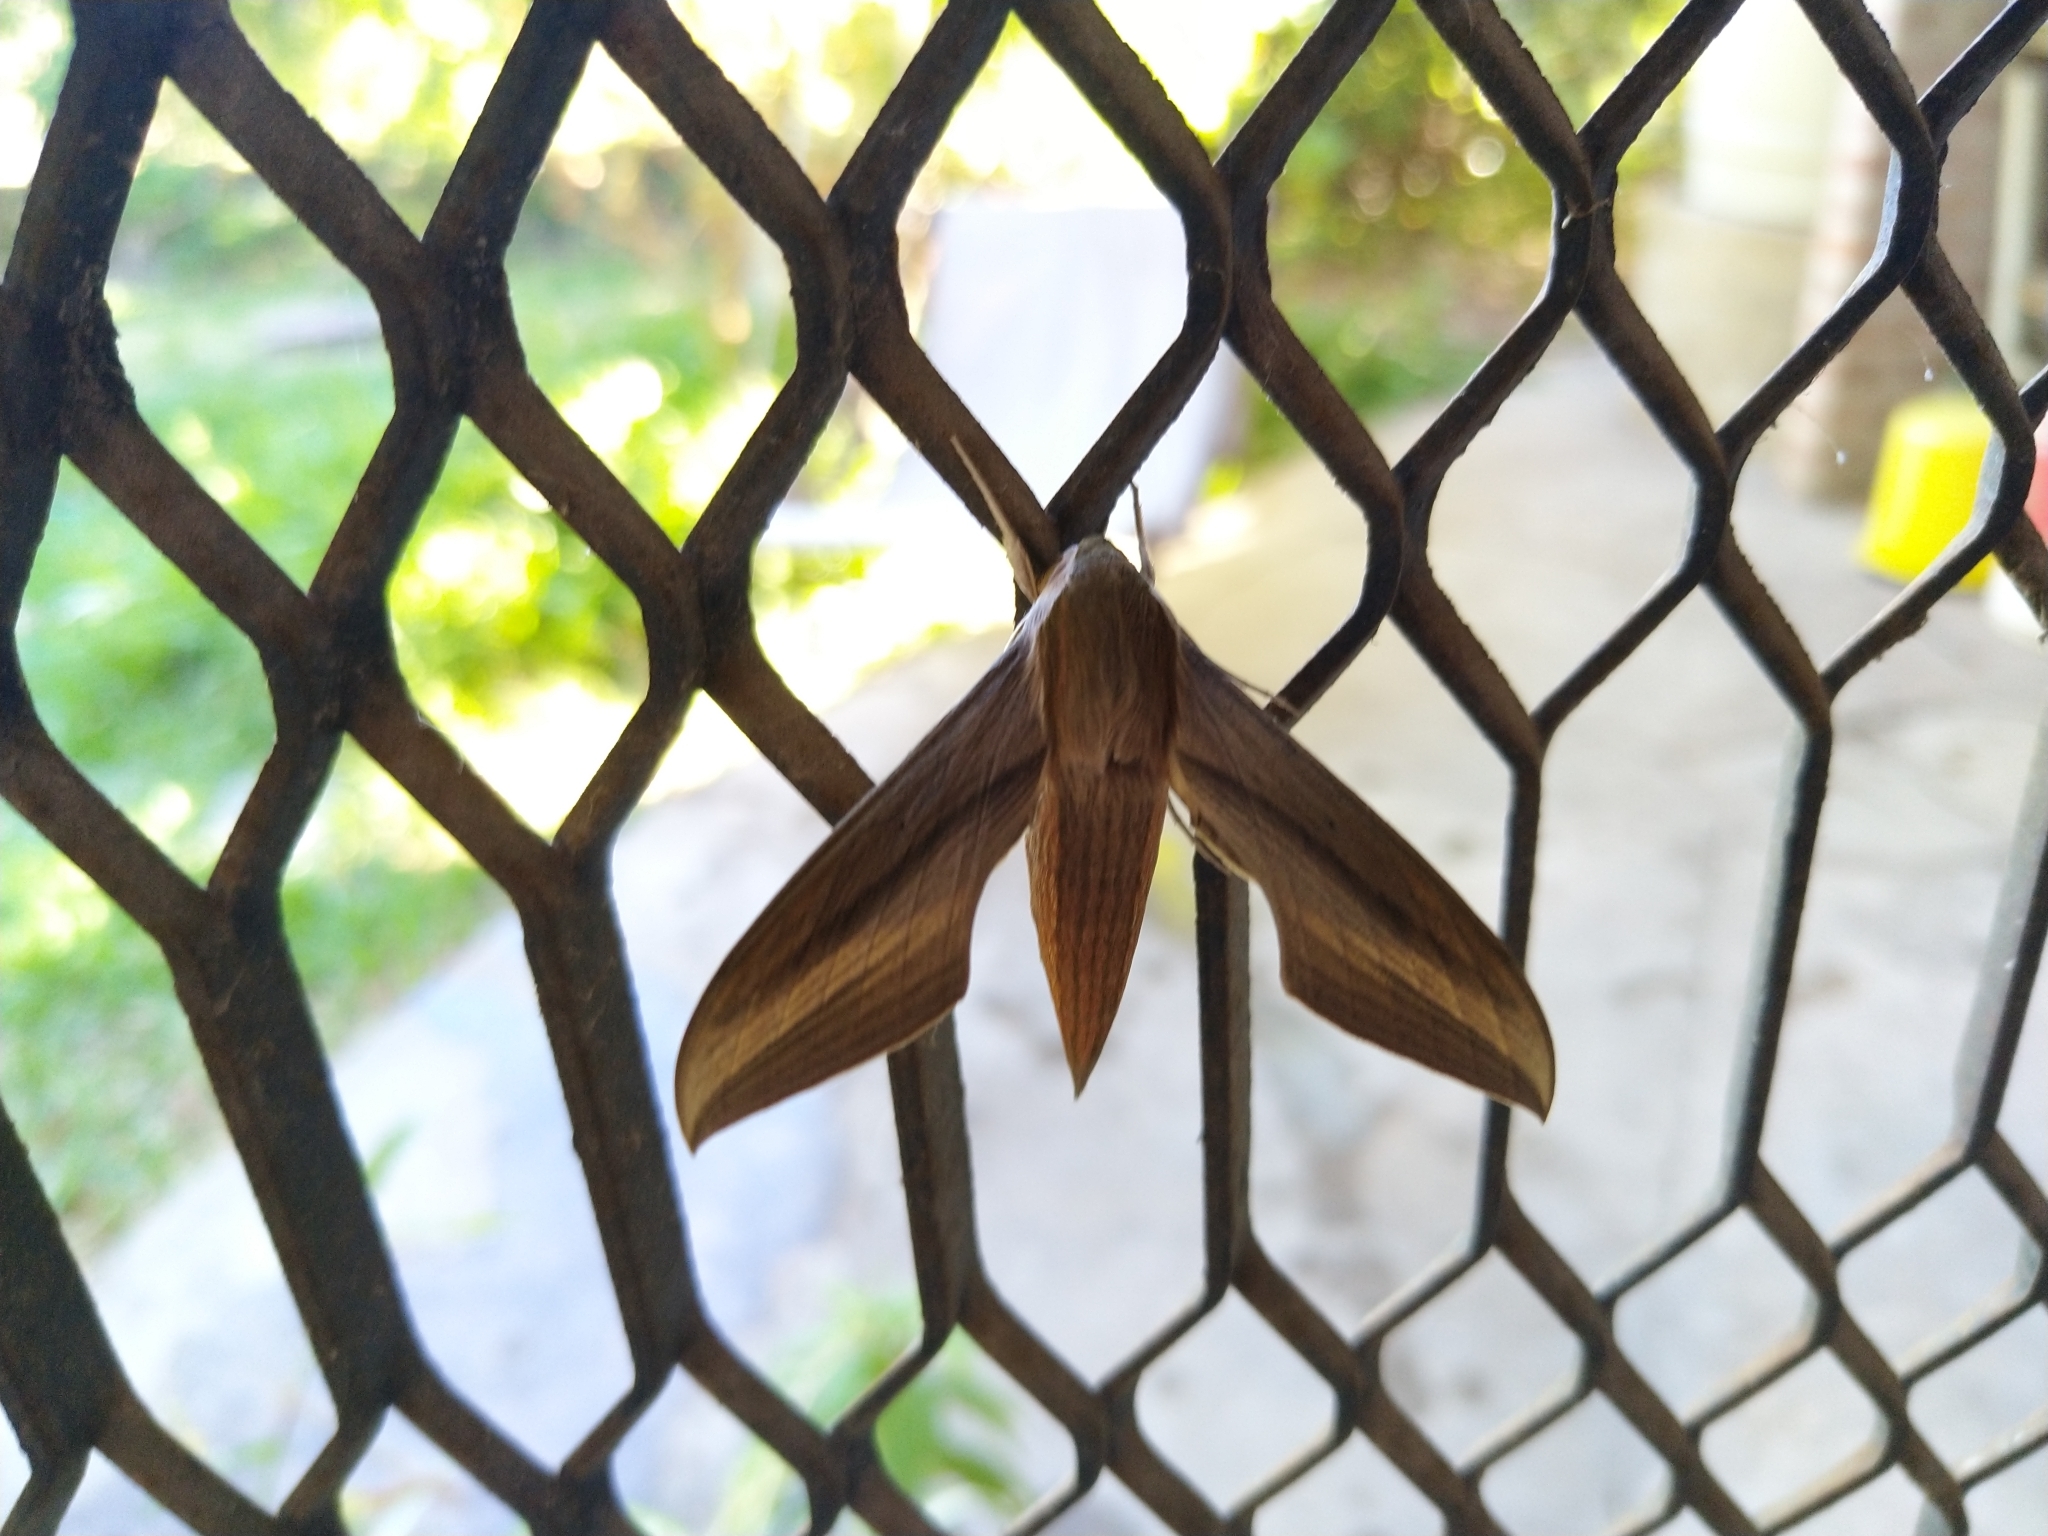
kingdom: Animalia
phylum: Arthropoda
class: Insecta
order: Lepidoptera
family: Sphingidae
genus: Xylophanes
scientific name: Xylophanes tersa
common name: Tersa sphinx
